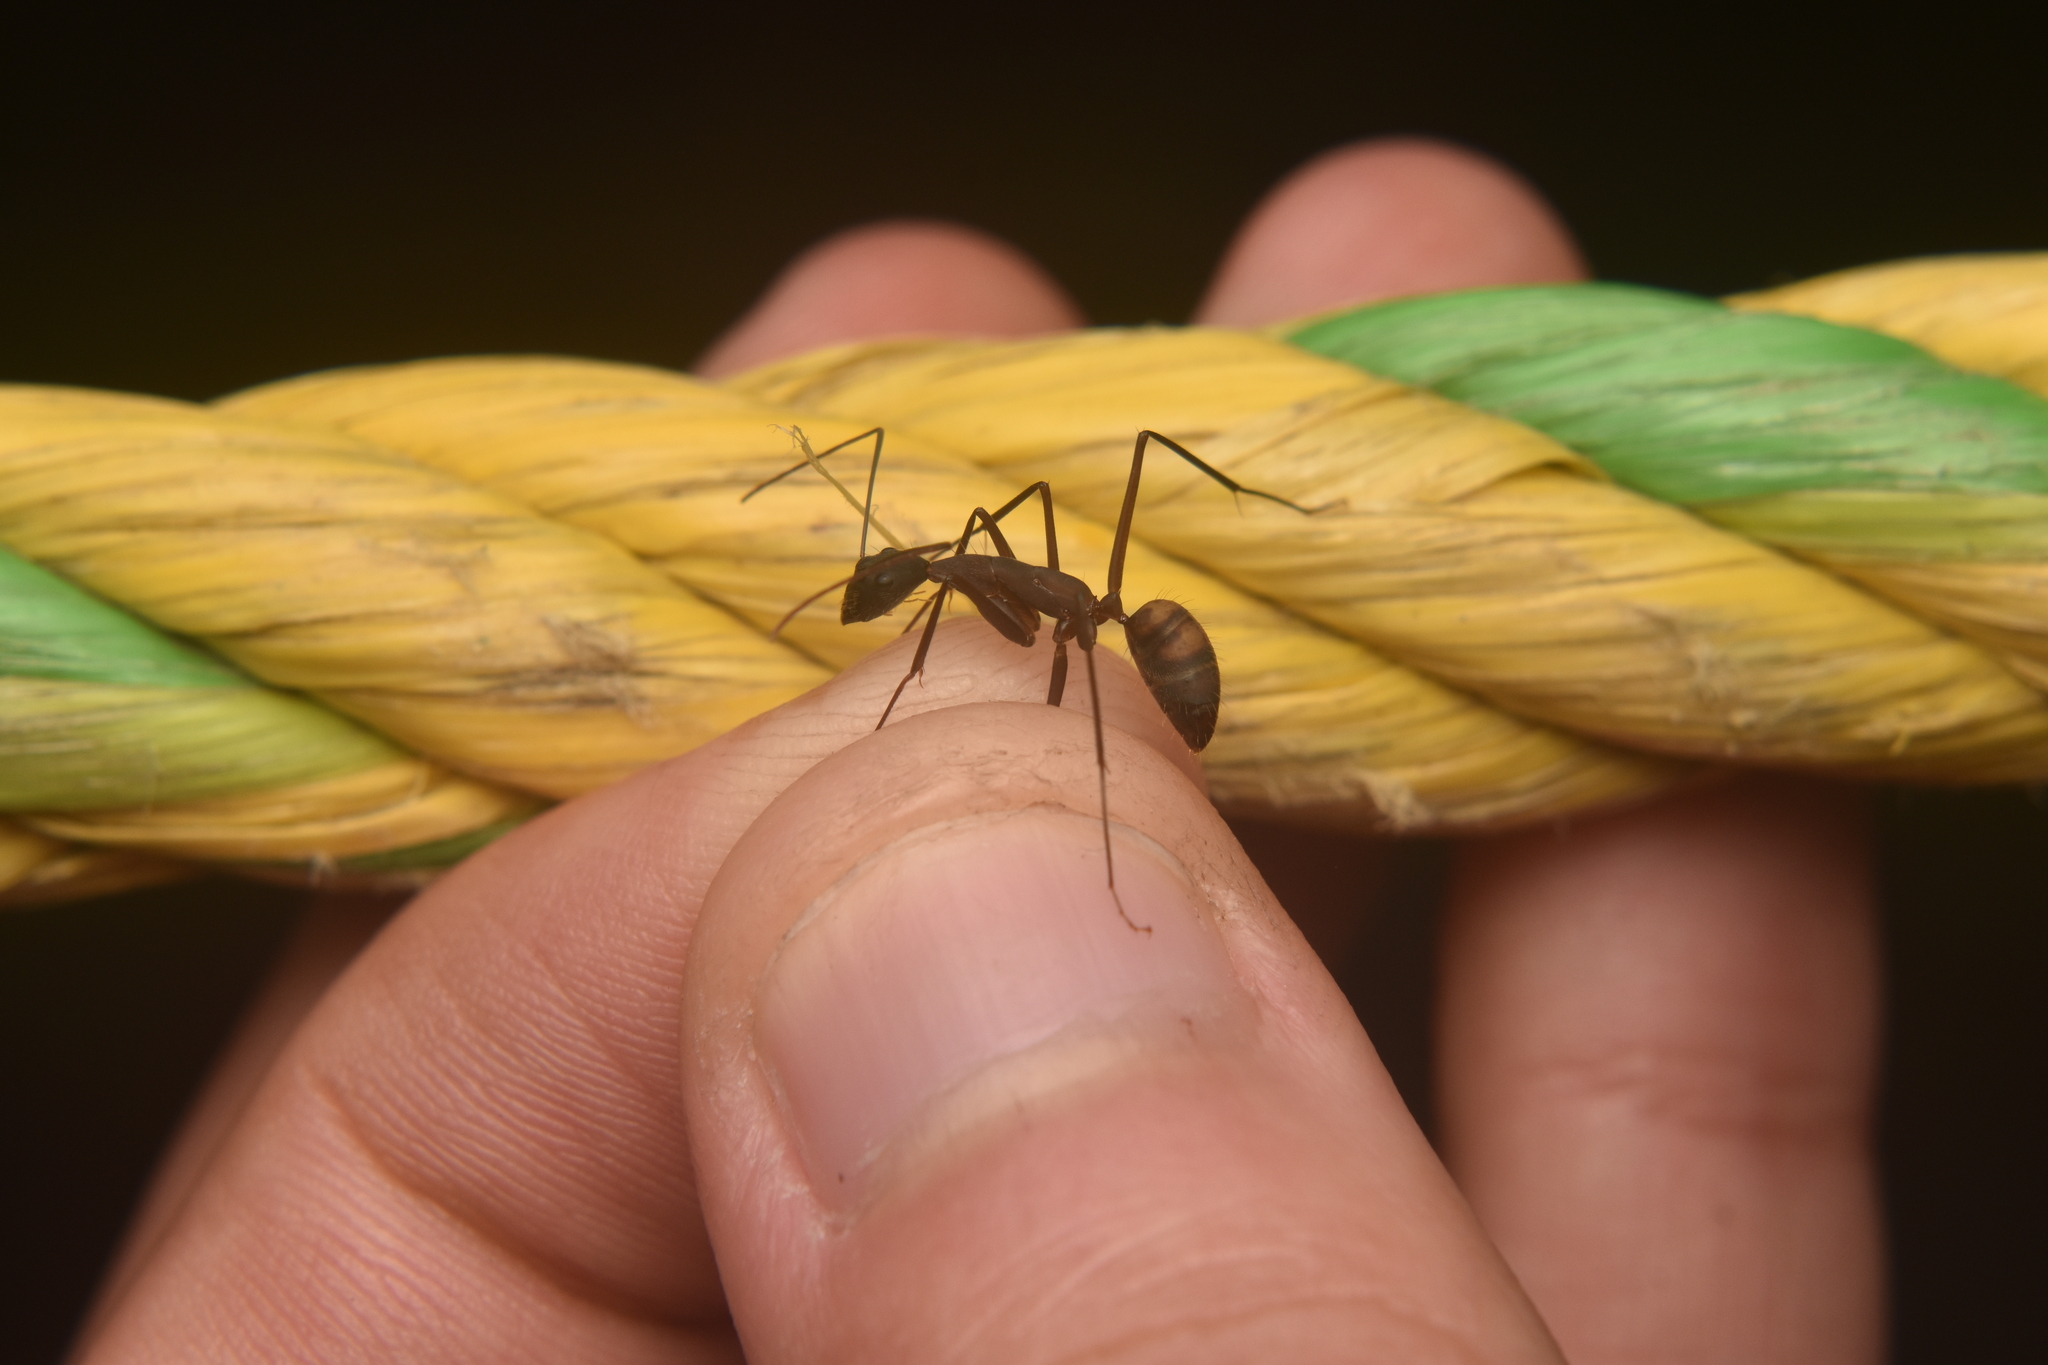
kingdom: Animalia
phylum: Arthropoda
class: Insecta
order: Hymenoptera
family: Formicidae
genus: Camponotus
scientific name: Camponotus amoris
